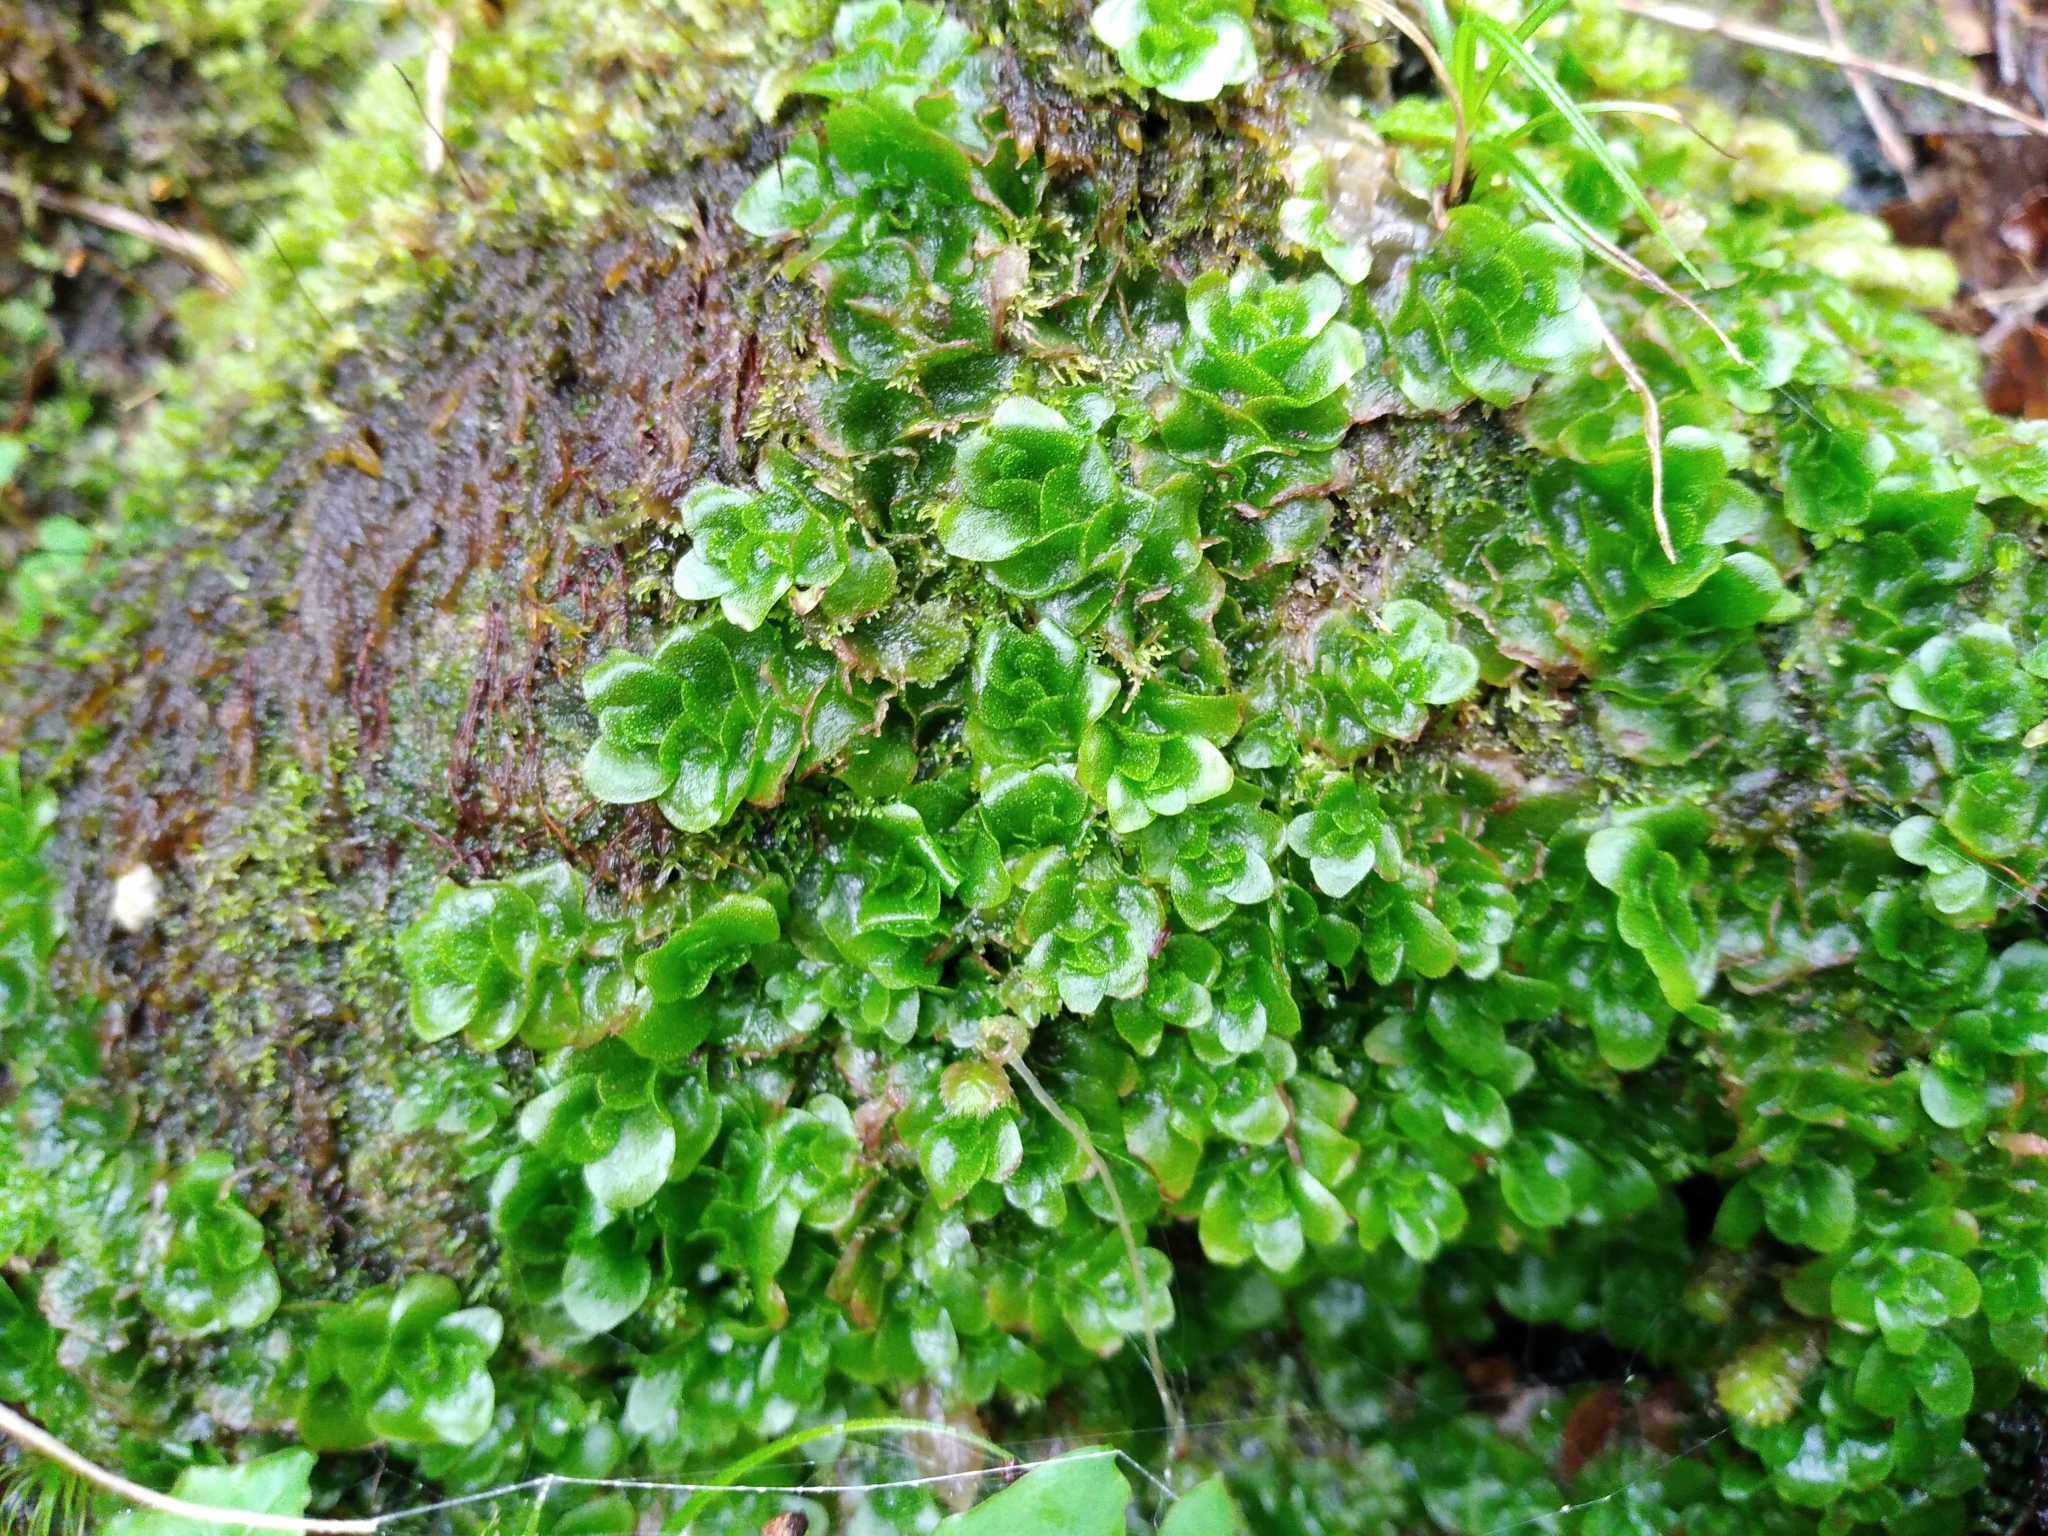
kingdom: Plantae
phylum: Marchantiophyta
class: Haplomitriopsida
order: Treubiales
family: Treubiaceae
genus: Treubia
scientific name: Treubia lacunosa
